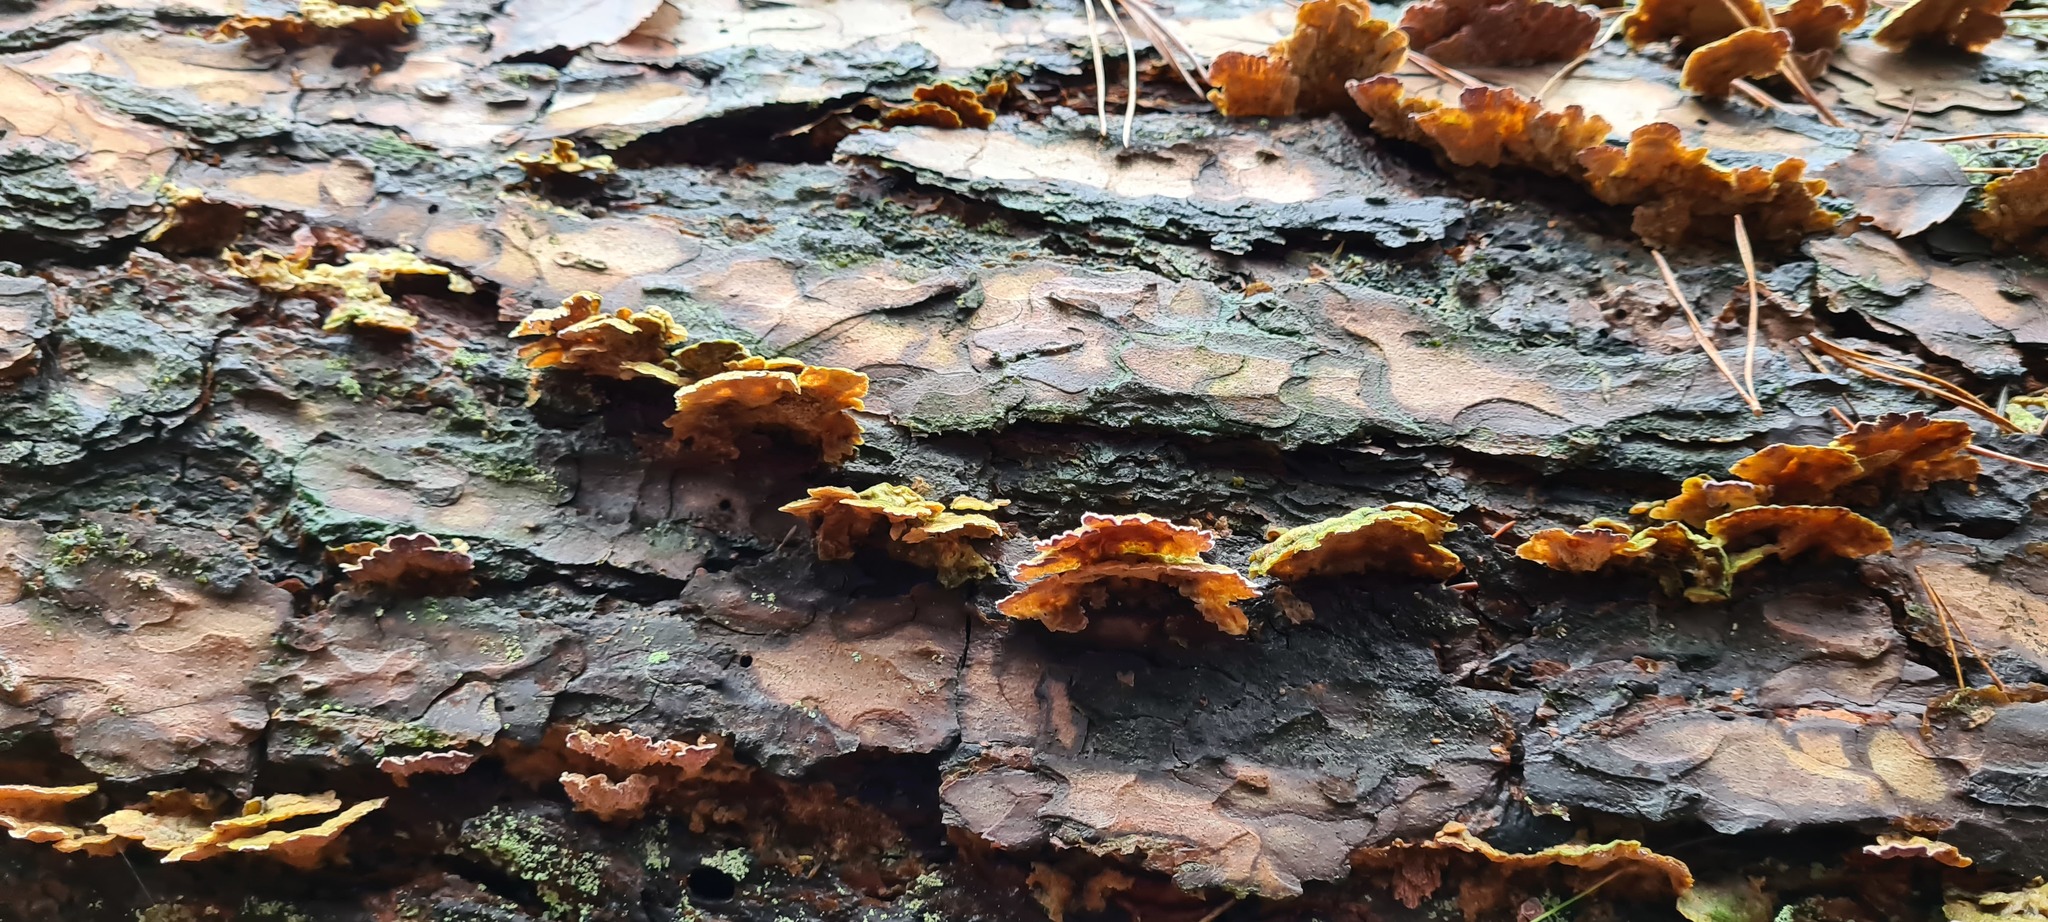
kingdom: Fungi
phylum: Basidiomycota
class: Agaricomycetes
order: Hymenochaetales
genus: Trichaptum
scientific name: Trichaptum abietinum
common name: Purplepore bracket
